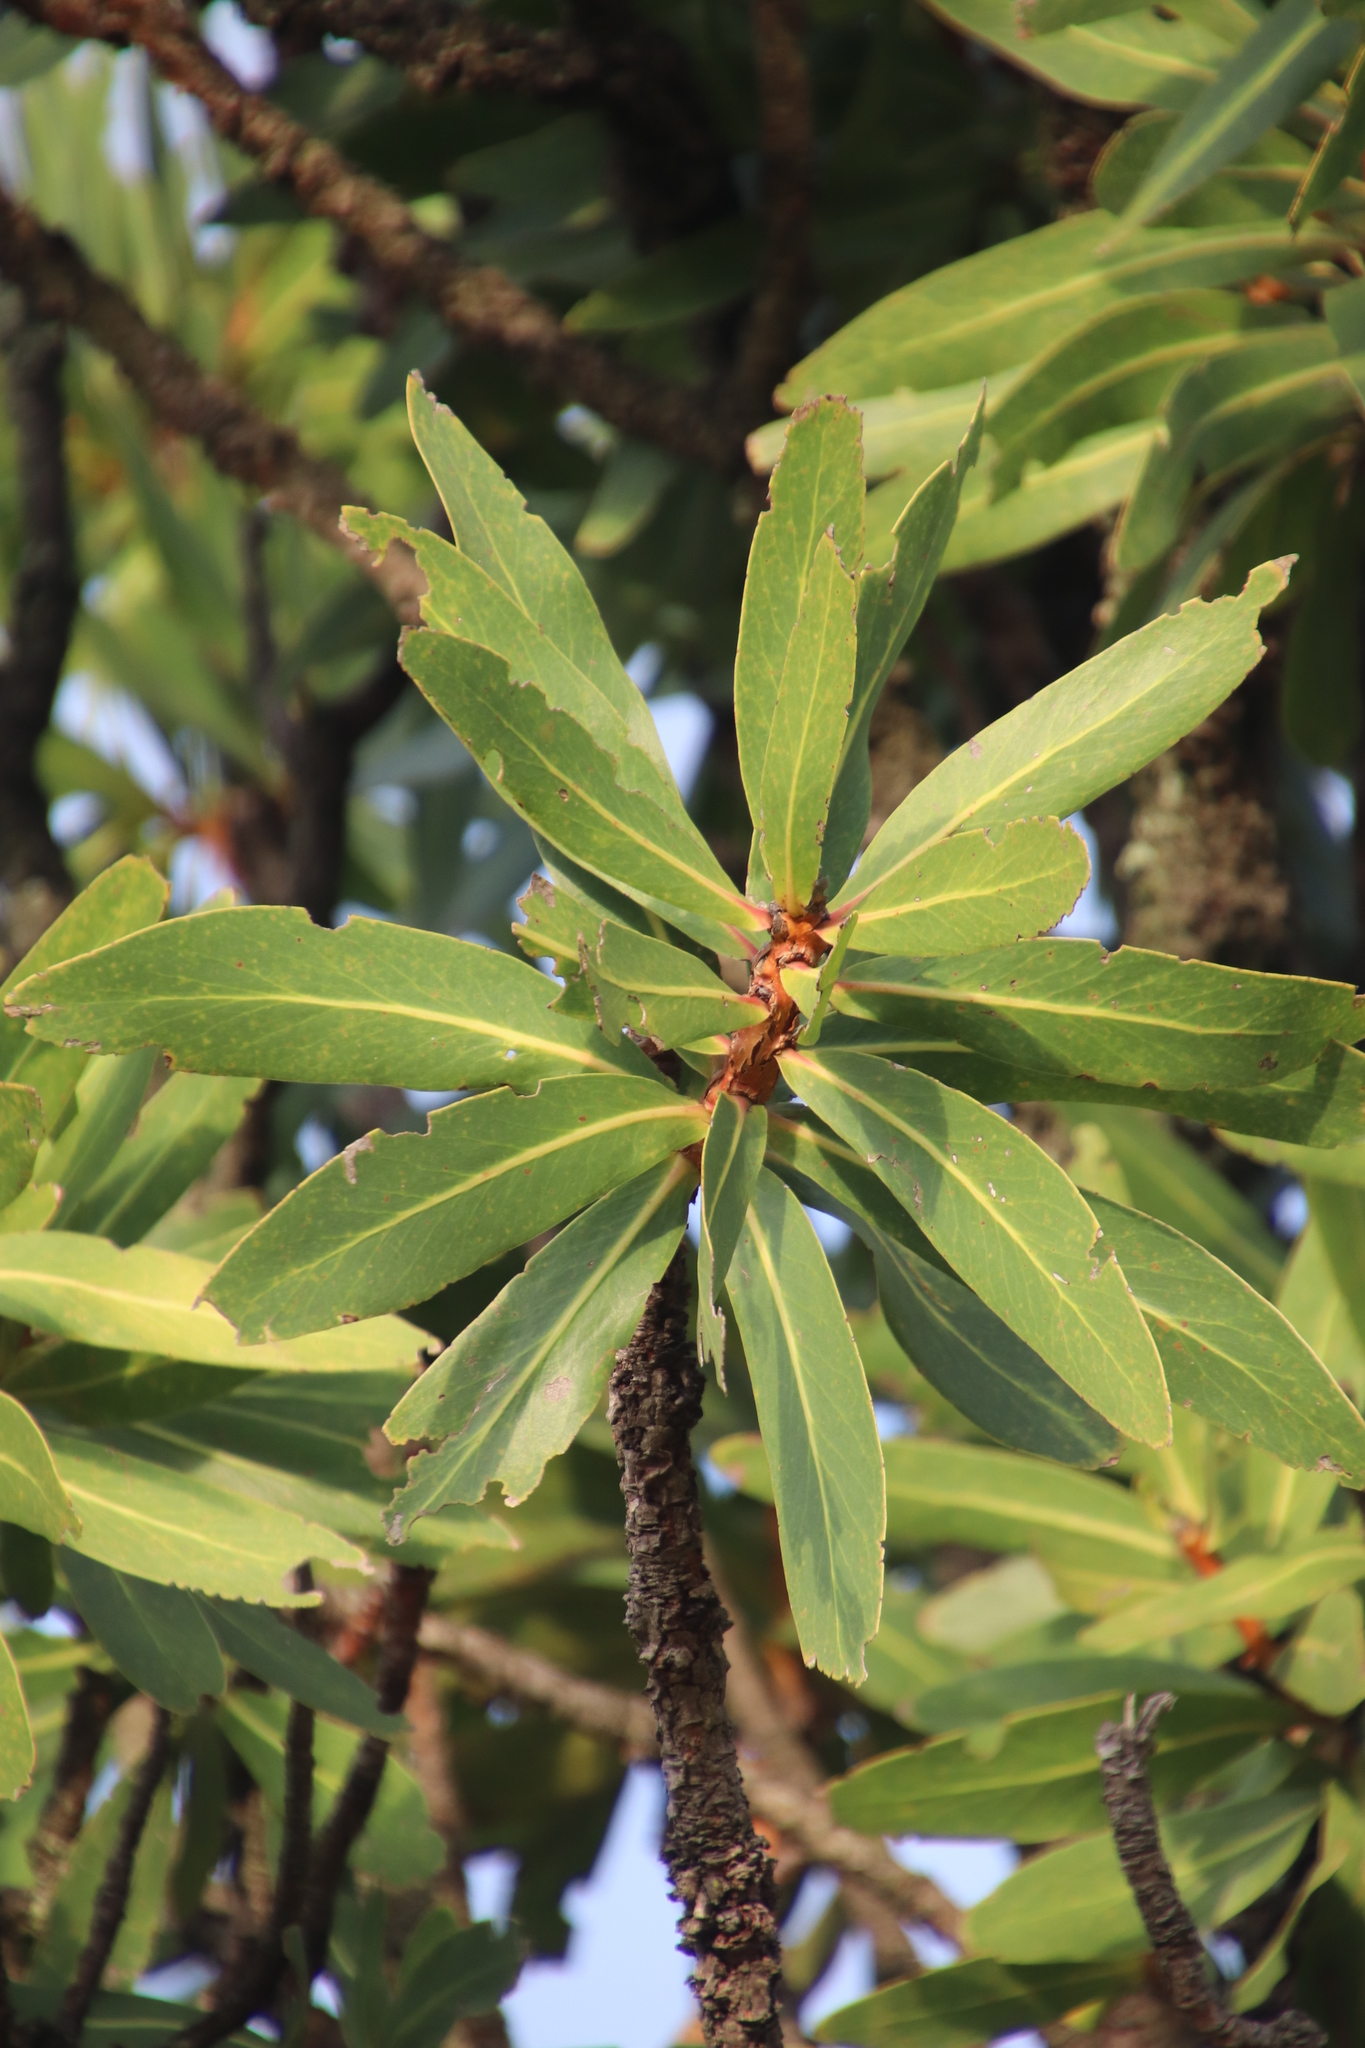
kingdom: Plantae
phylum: Tracheophyta
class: Magnoliopsida
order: Proteales
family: Proteaceae
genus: Protea
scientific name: Protea comptonii
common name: Barberton mountain sugarbush
